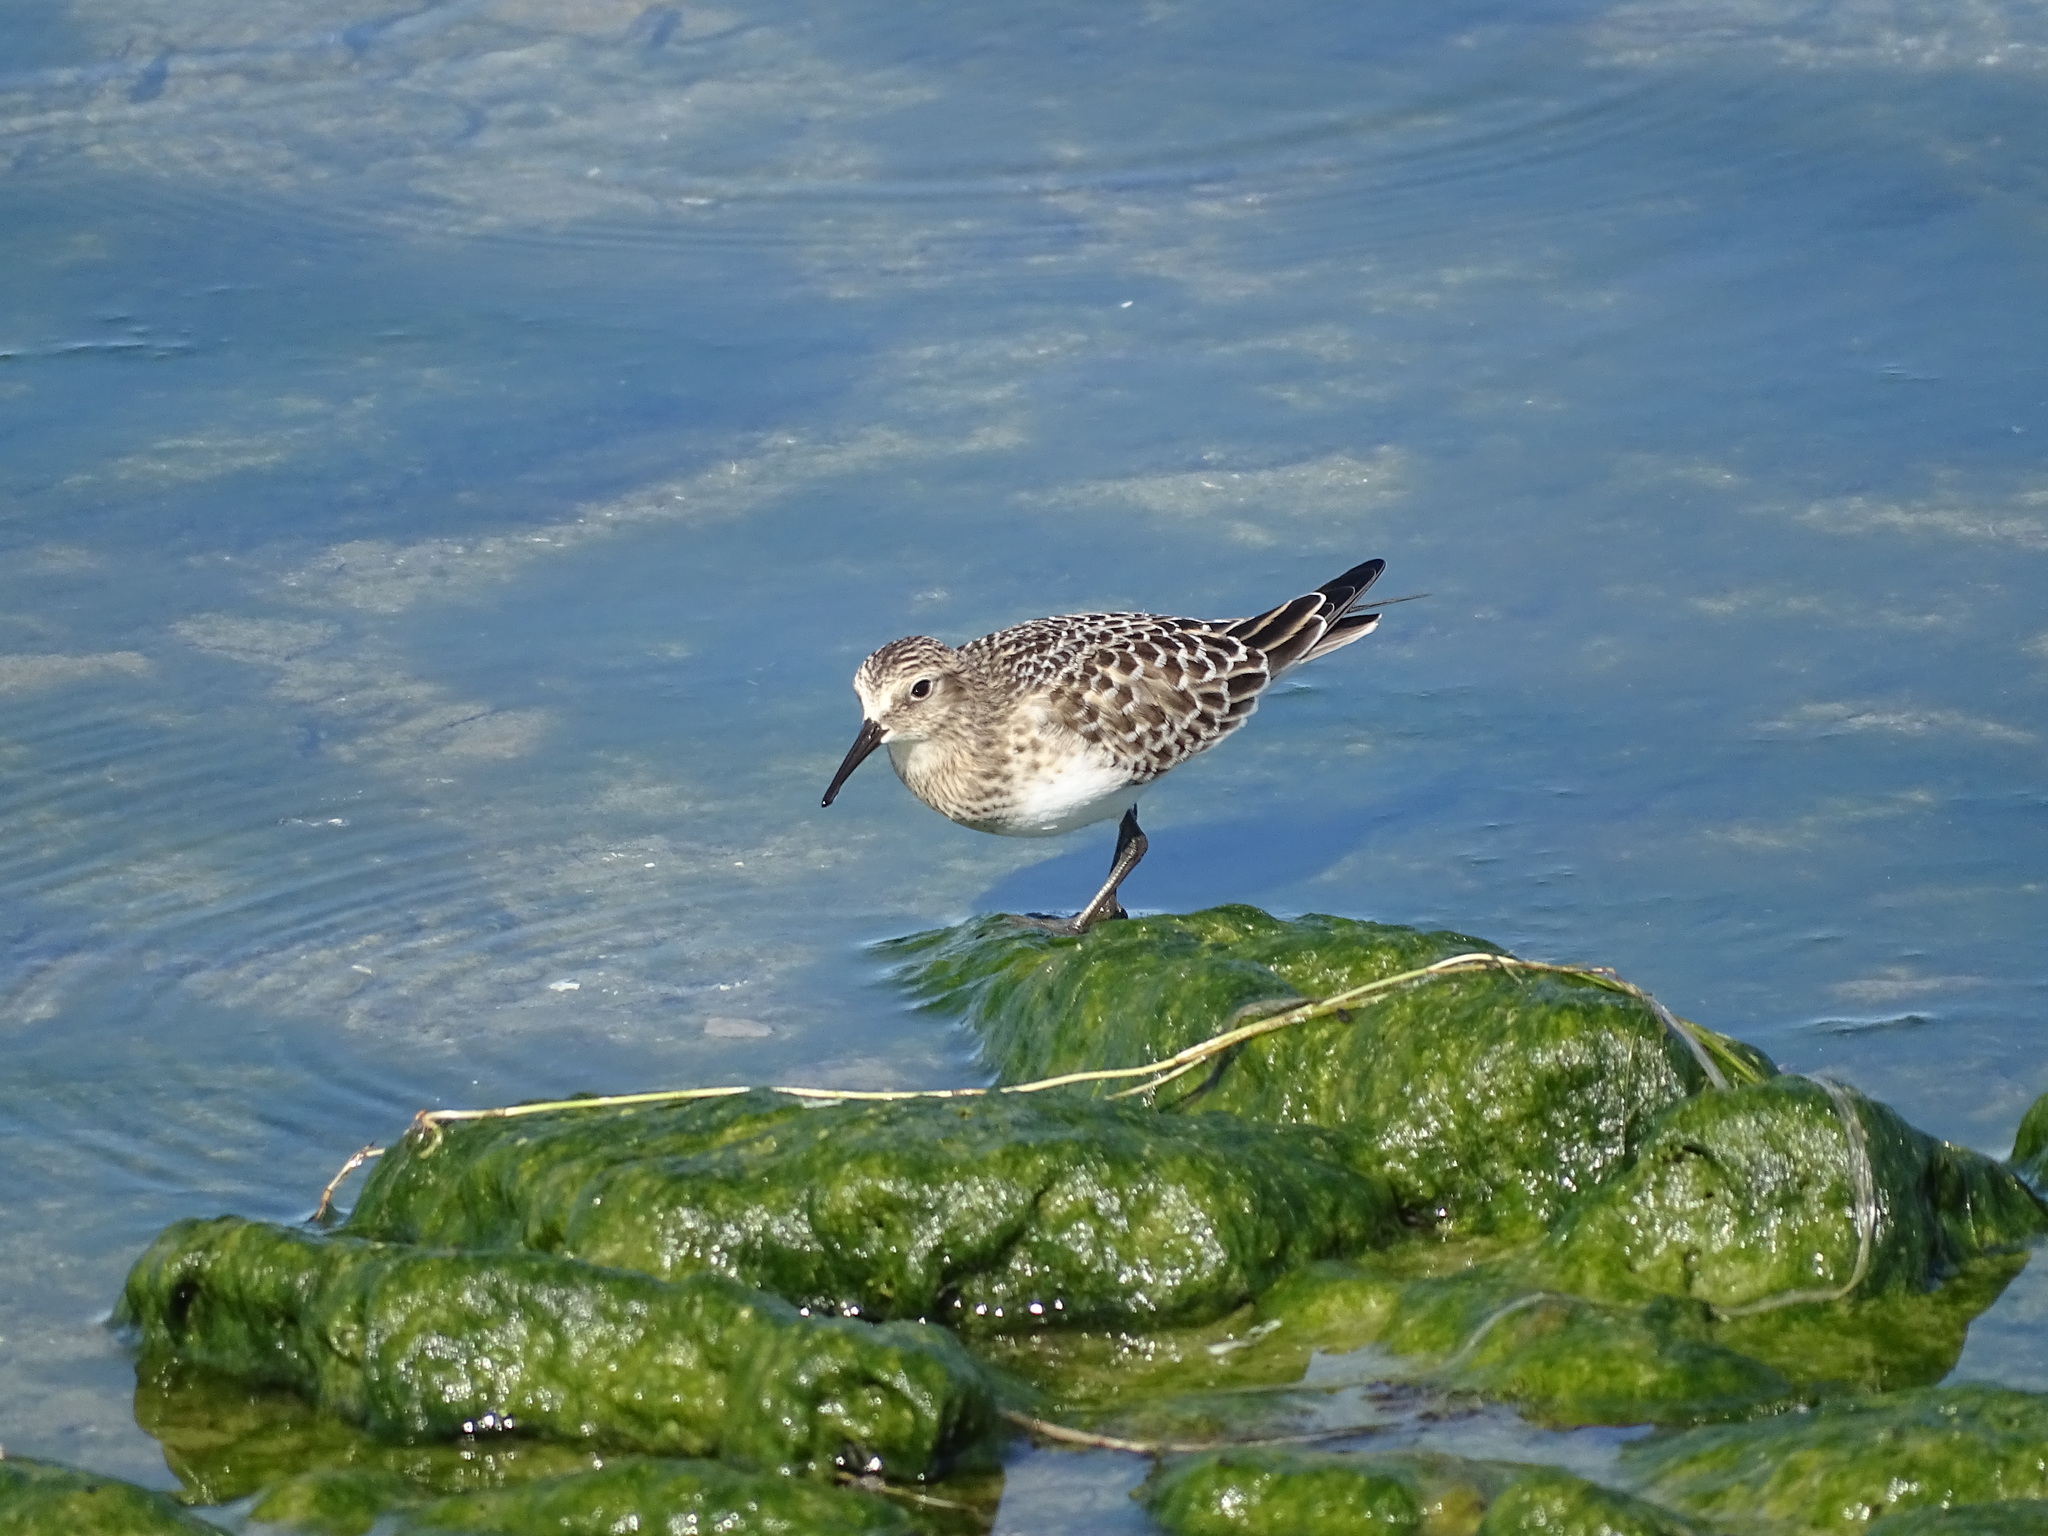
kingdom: Animalia
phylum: Chordata
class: Aves
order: Charadriiformes
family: Scolopacidae
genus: Calidris
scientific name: Calidris bairdii
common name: Baird's sandpiper
